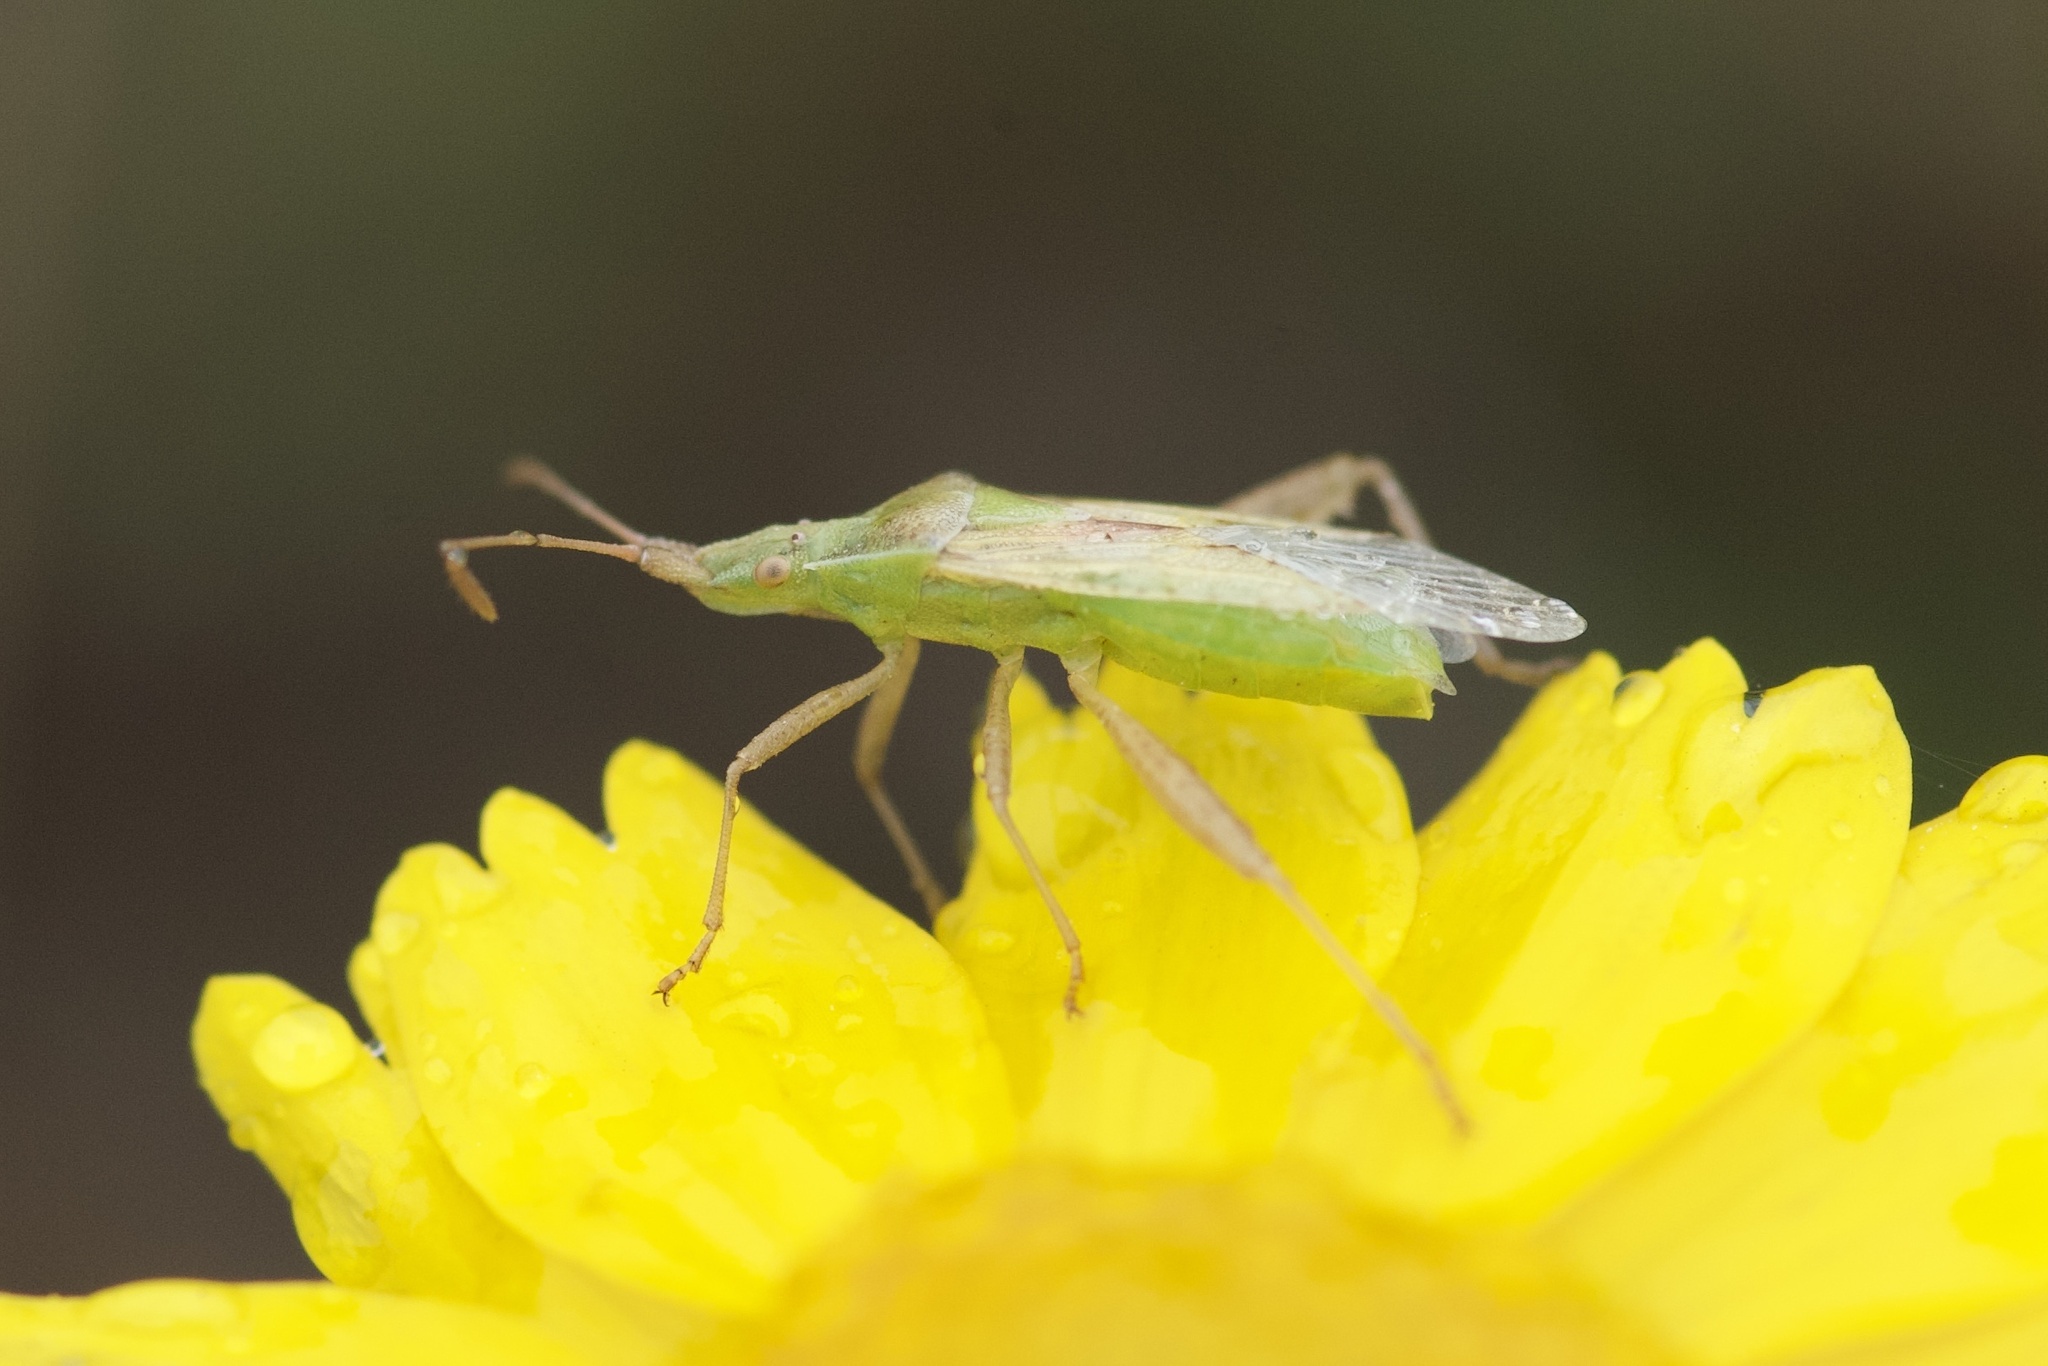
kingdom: Animalia
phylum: Arthropoda
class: Insecta
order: Hemiptera
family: Rhopalidae
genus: Harmostes
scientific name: Harmostes reflexulus
